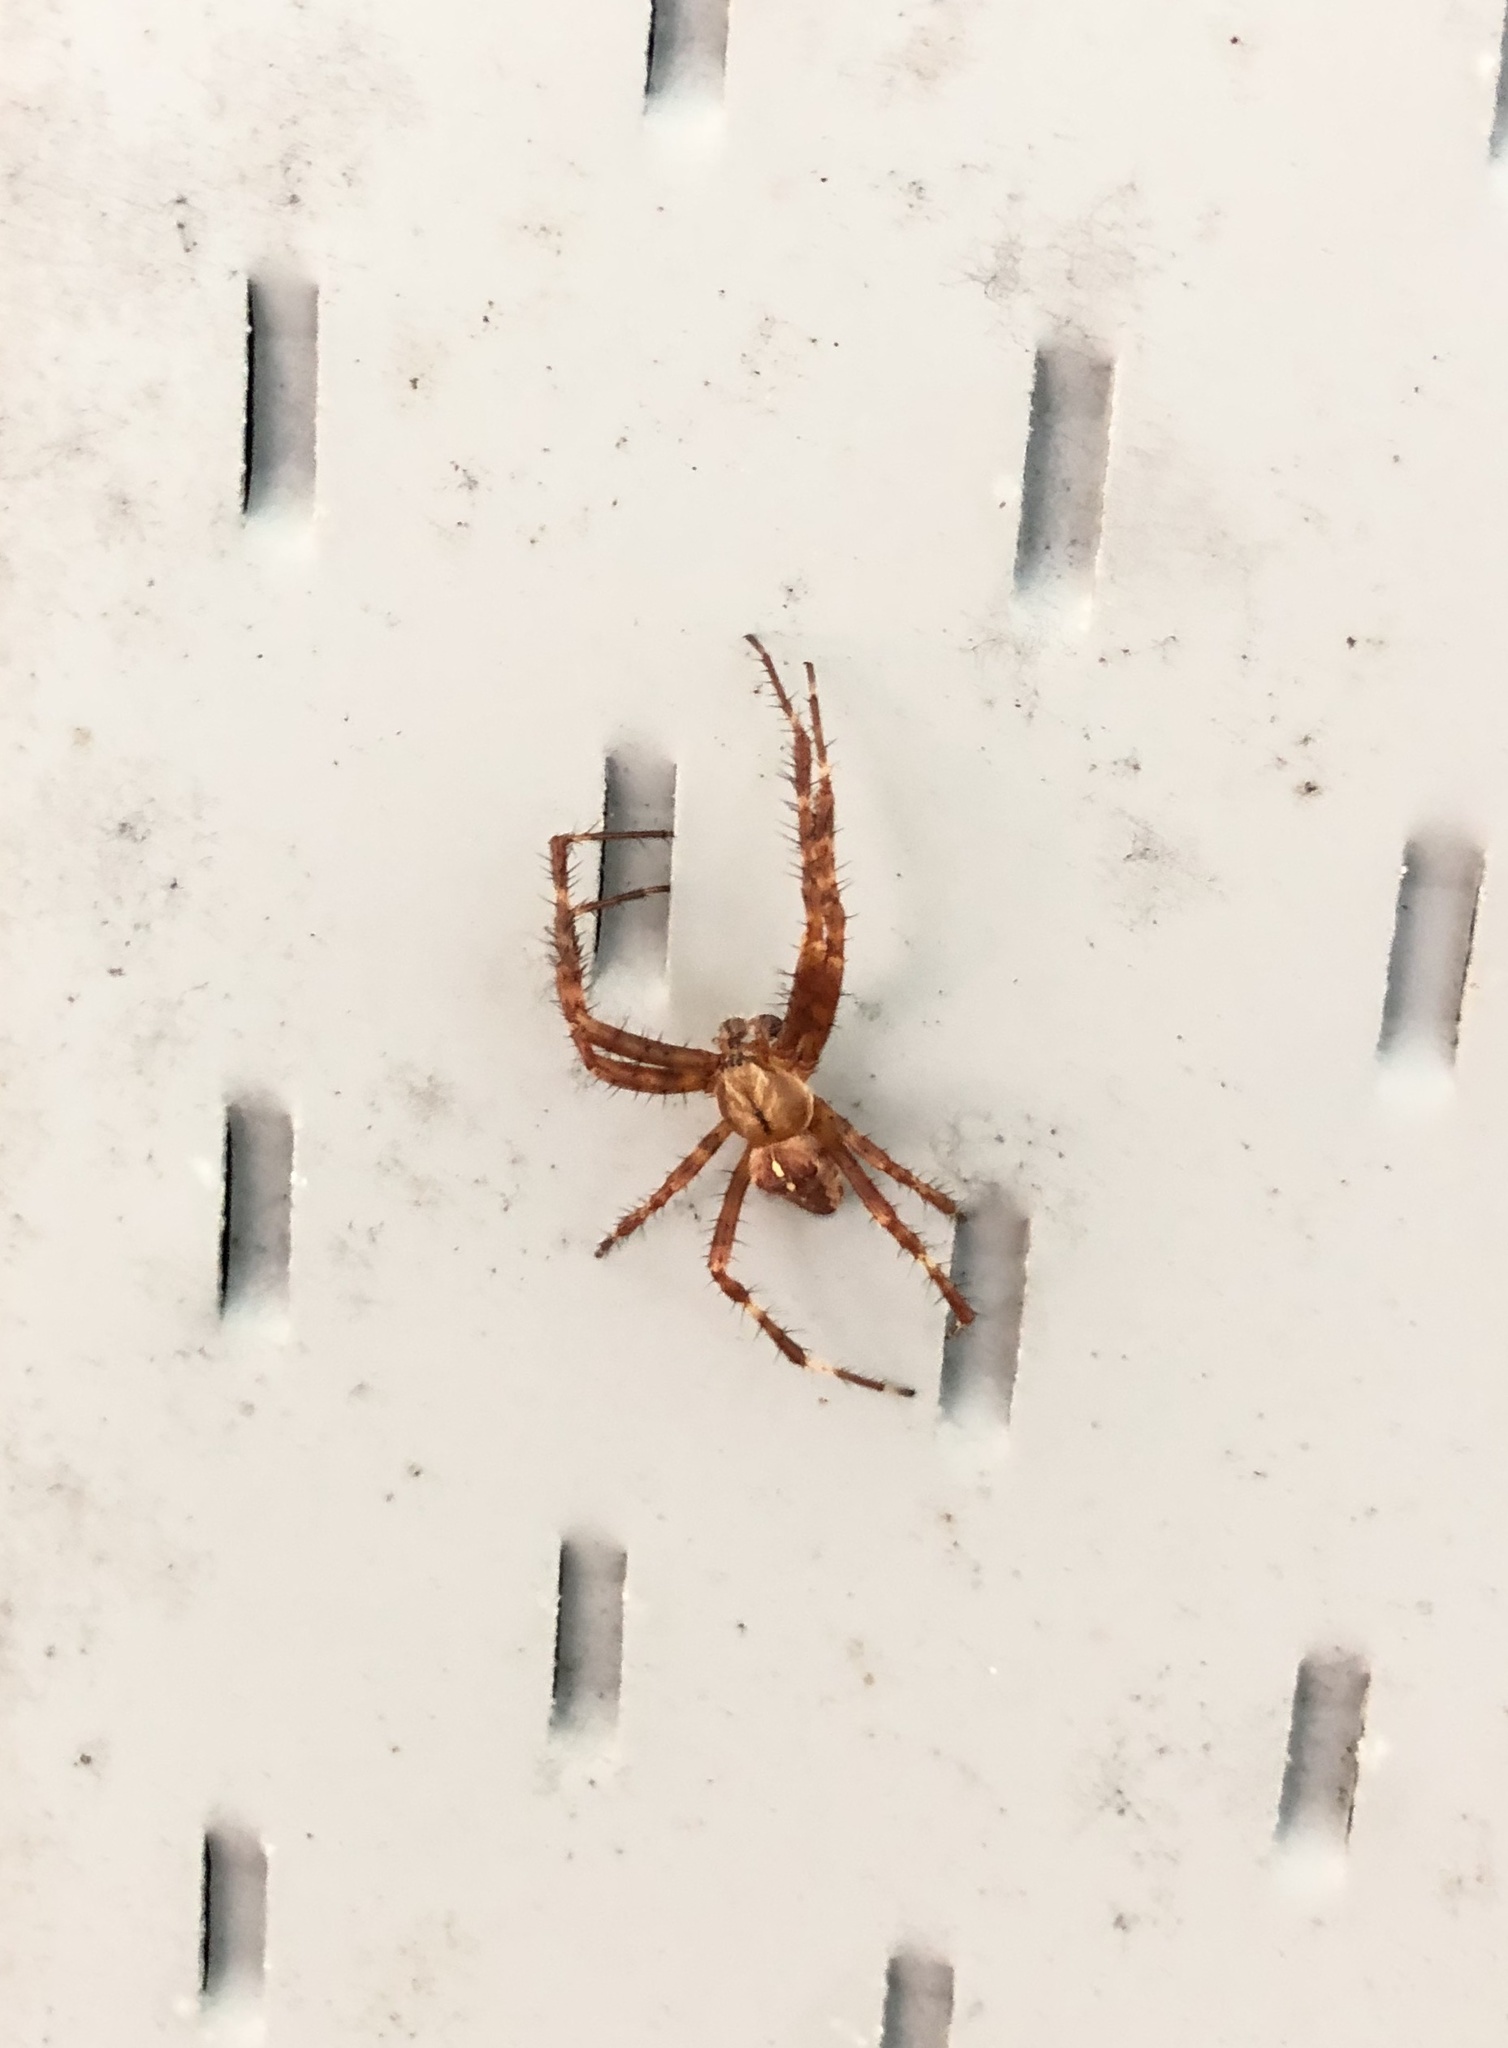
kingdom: Animalia
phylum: Arthropoda
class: Arachnida
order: Araneae
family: Araneidae
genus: Araneus
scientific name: Araneus diadematus
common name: Cross orbweaver
